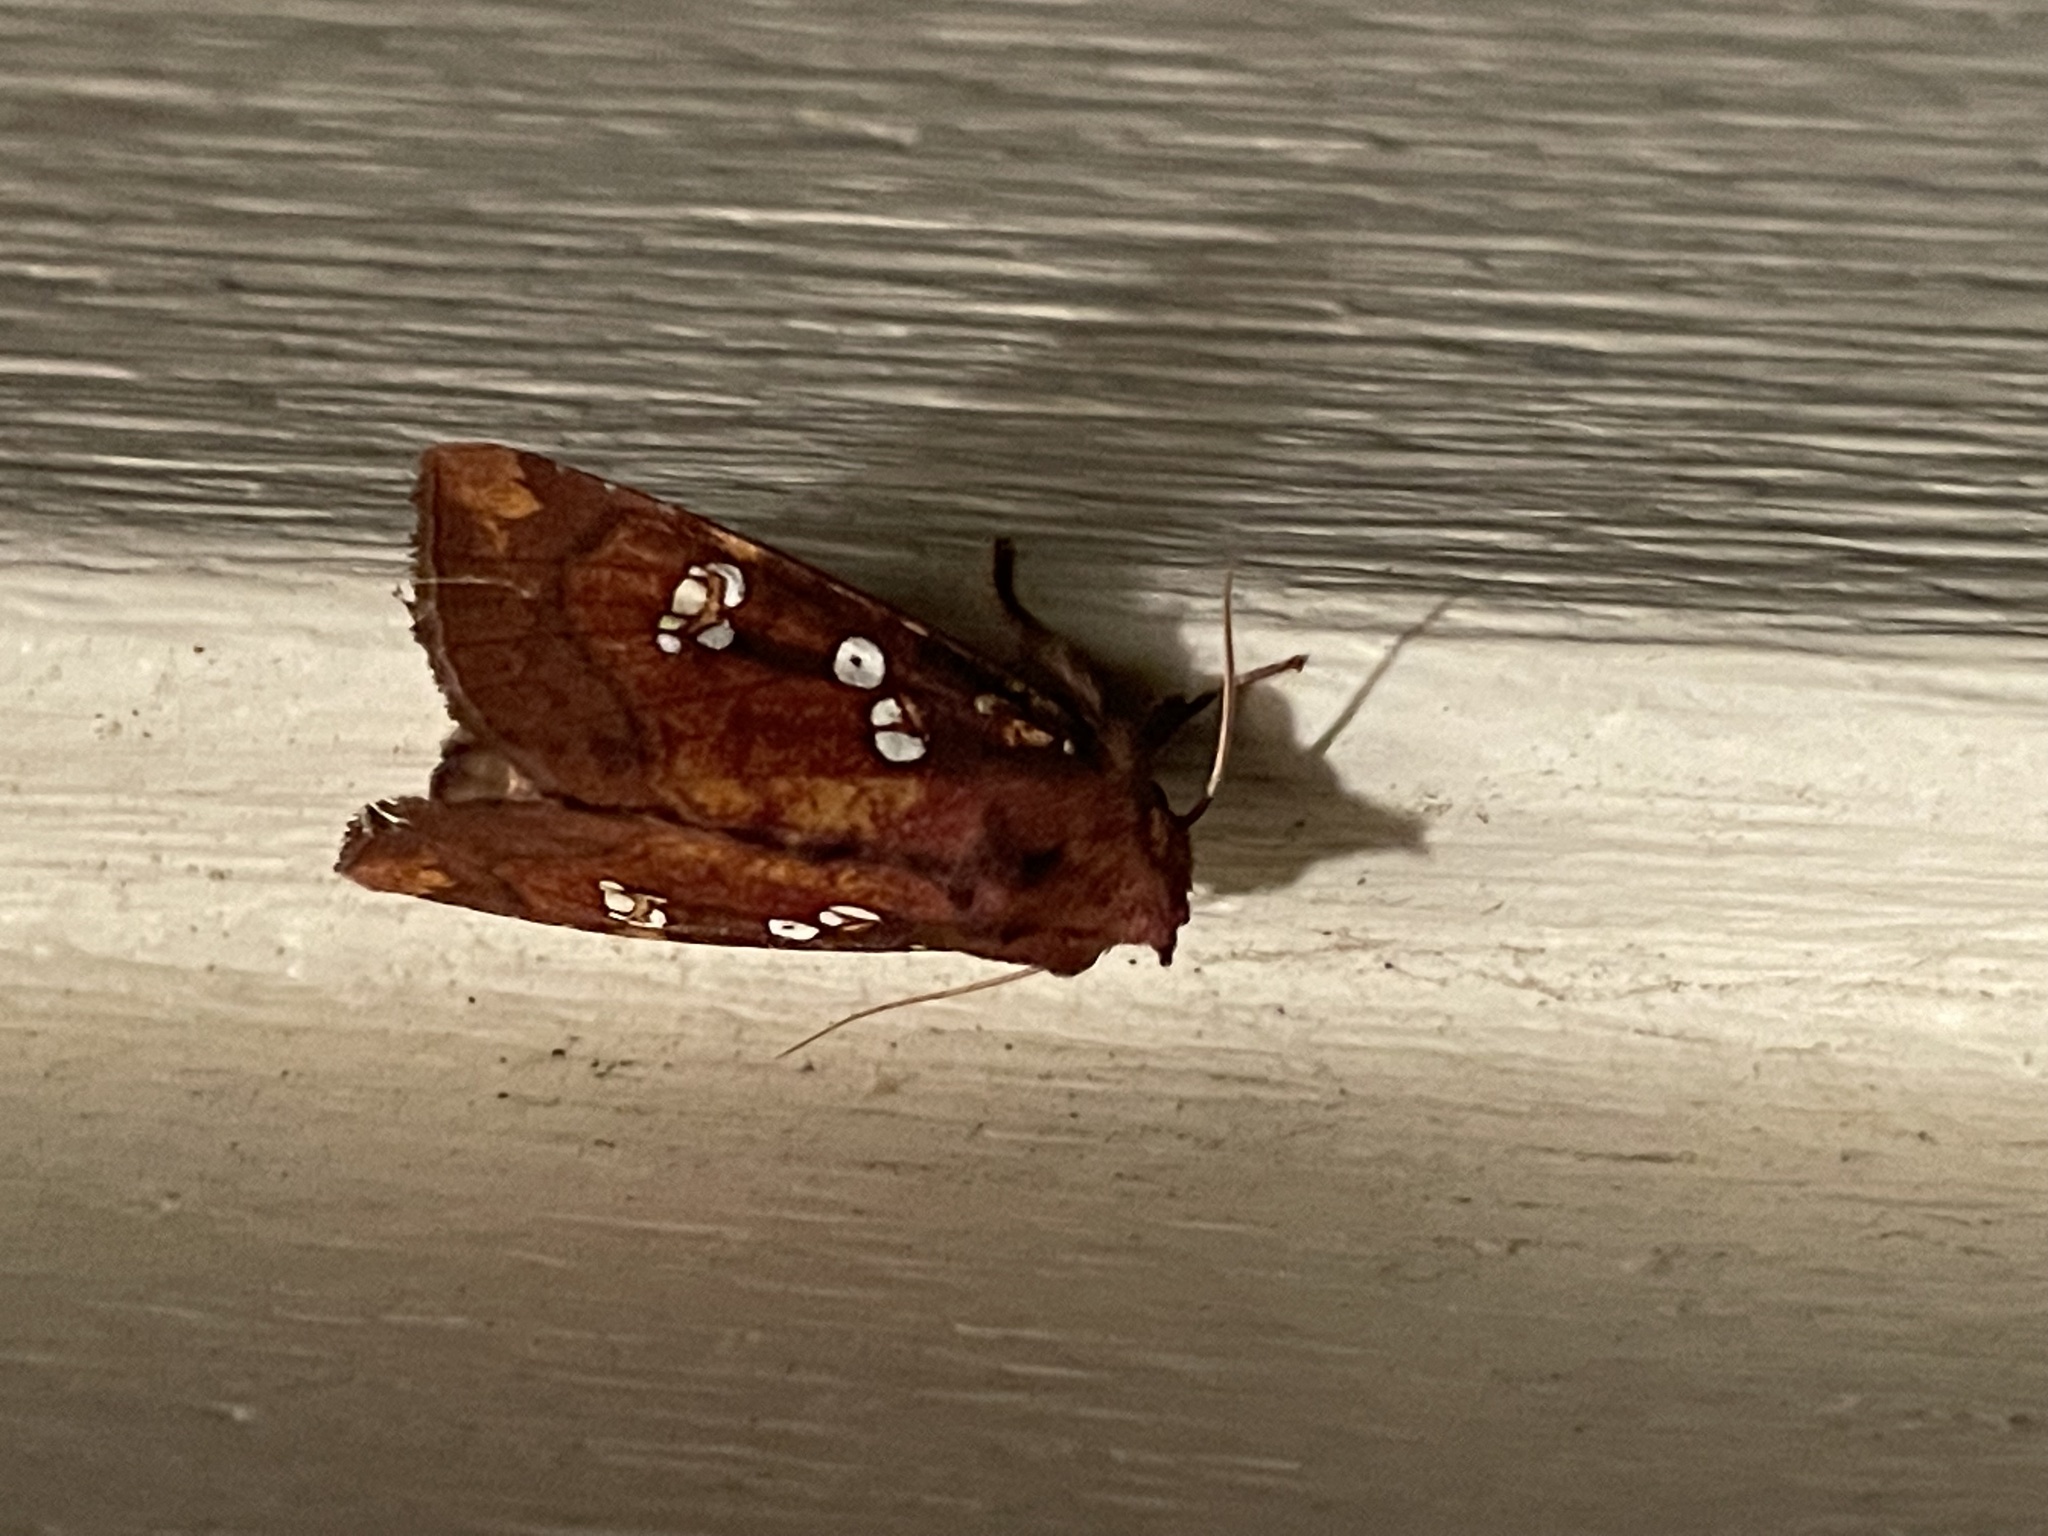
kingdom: Animalia
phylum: Arthropoda
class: Insecta
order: Lepidoptera
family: Noctuidae
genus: Papaipema
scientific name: Papaipema baptisiae
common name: Wild indigo borer moth
